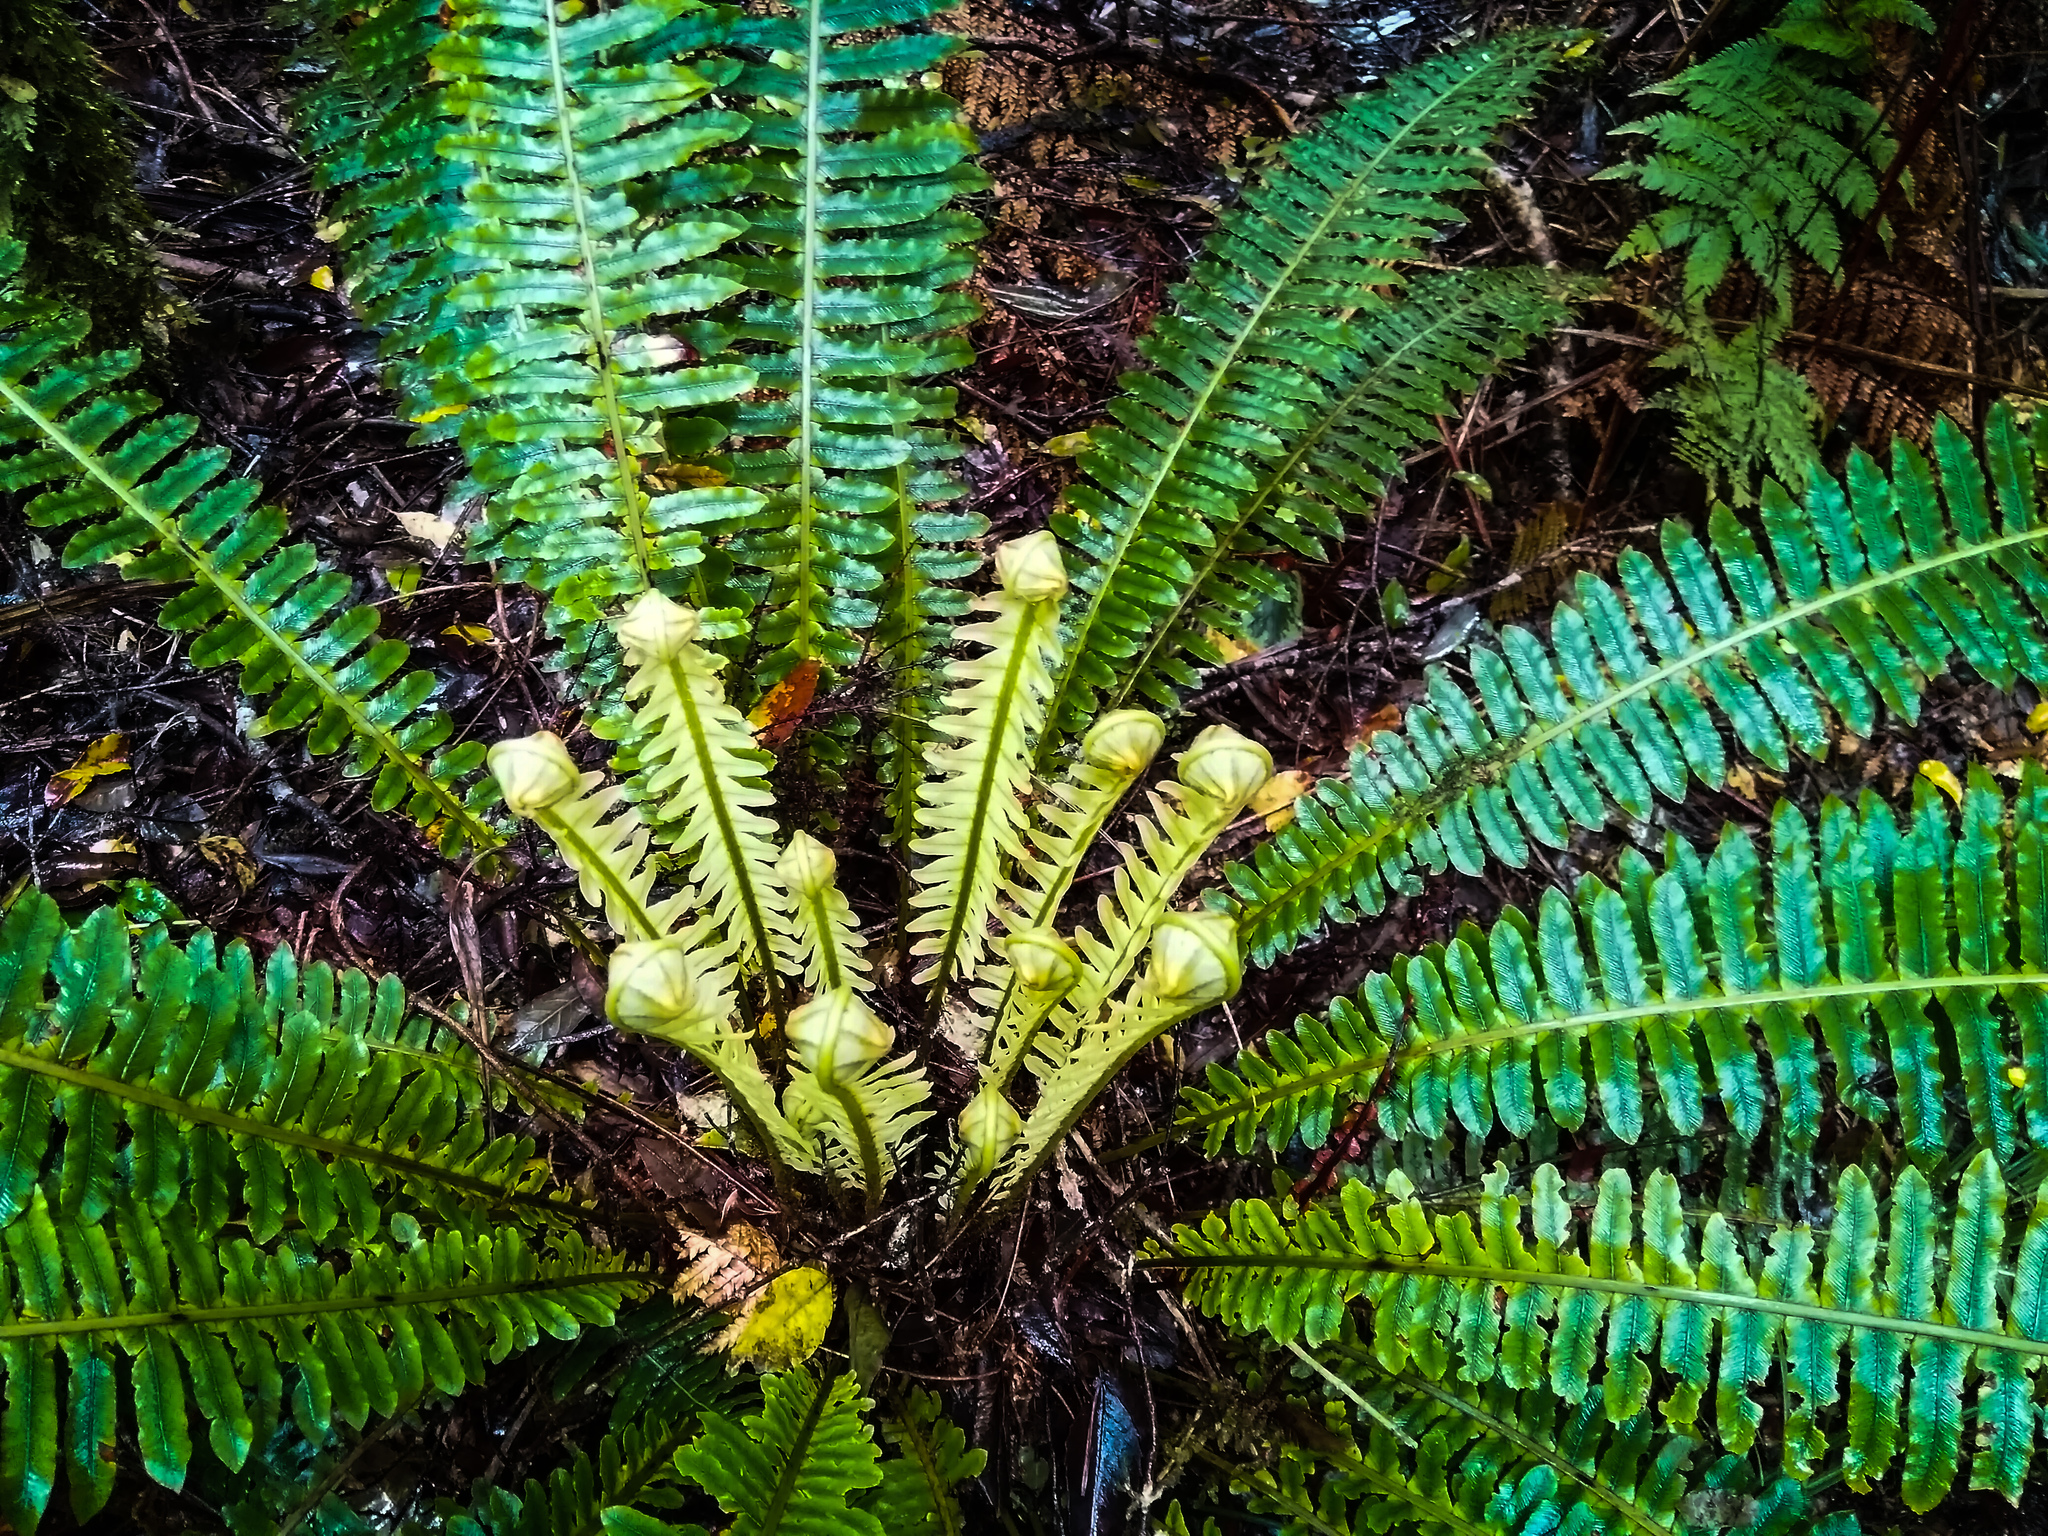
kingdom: Plantae
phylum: Tracheophyta
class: Polypodiopsida
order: Polypodiales
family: Blechnaceae
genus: Lomaria
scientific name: Lomaria discolor
